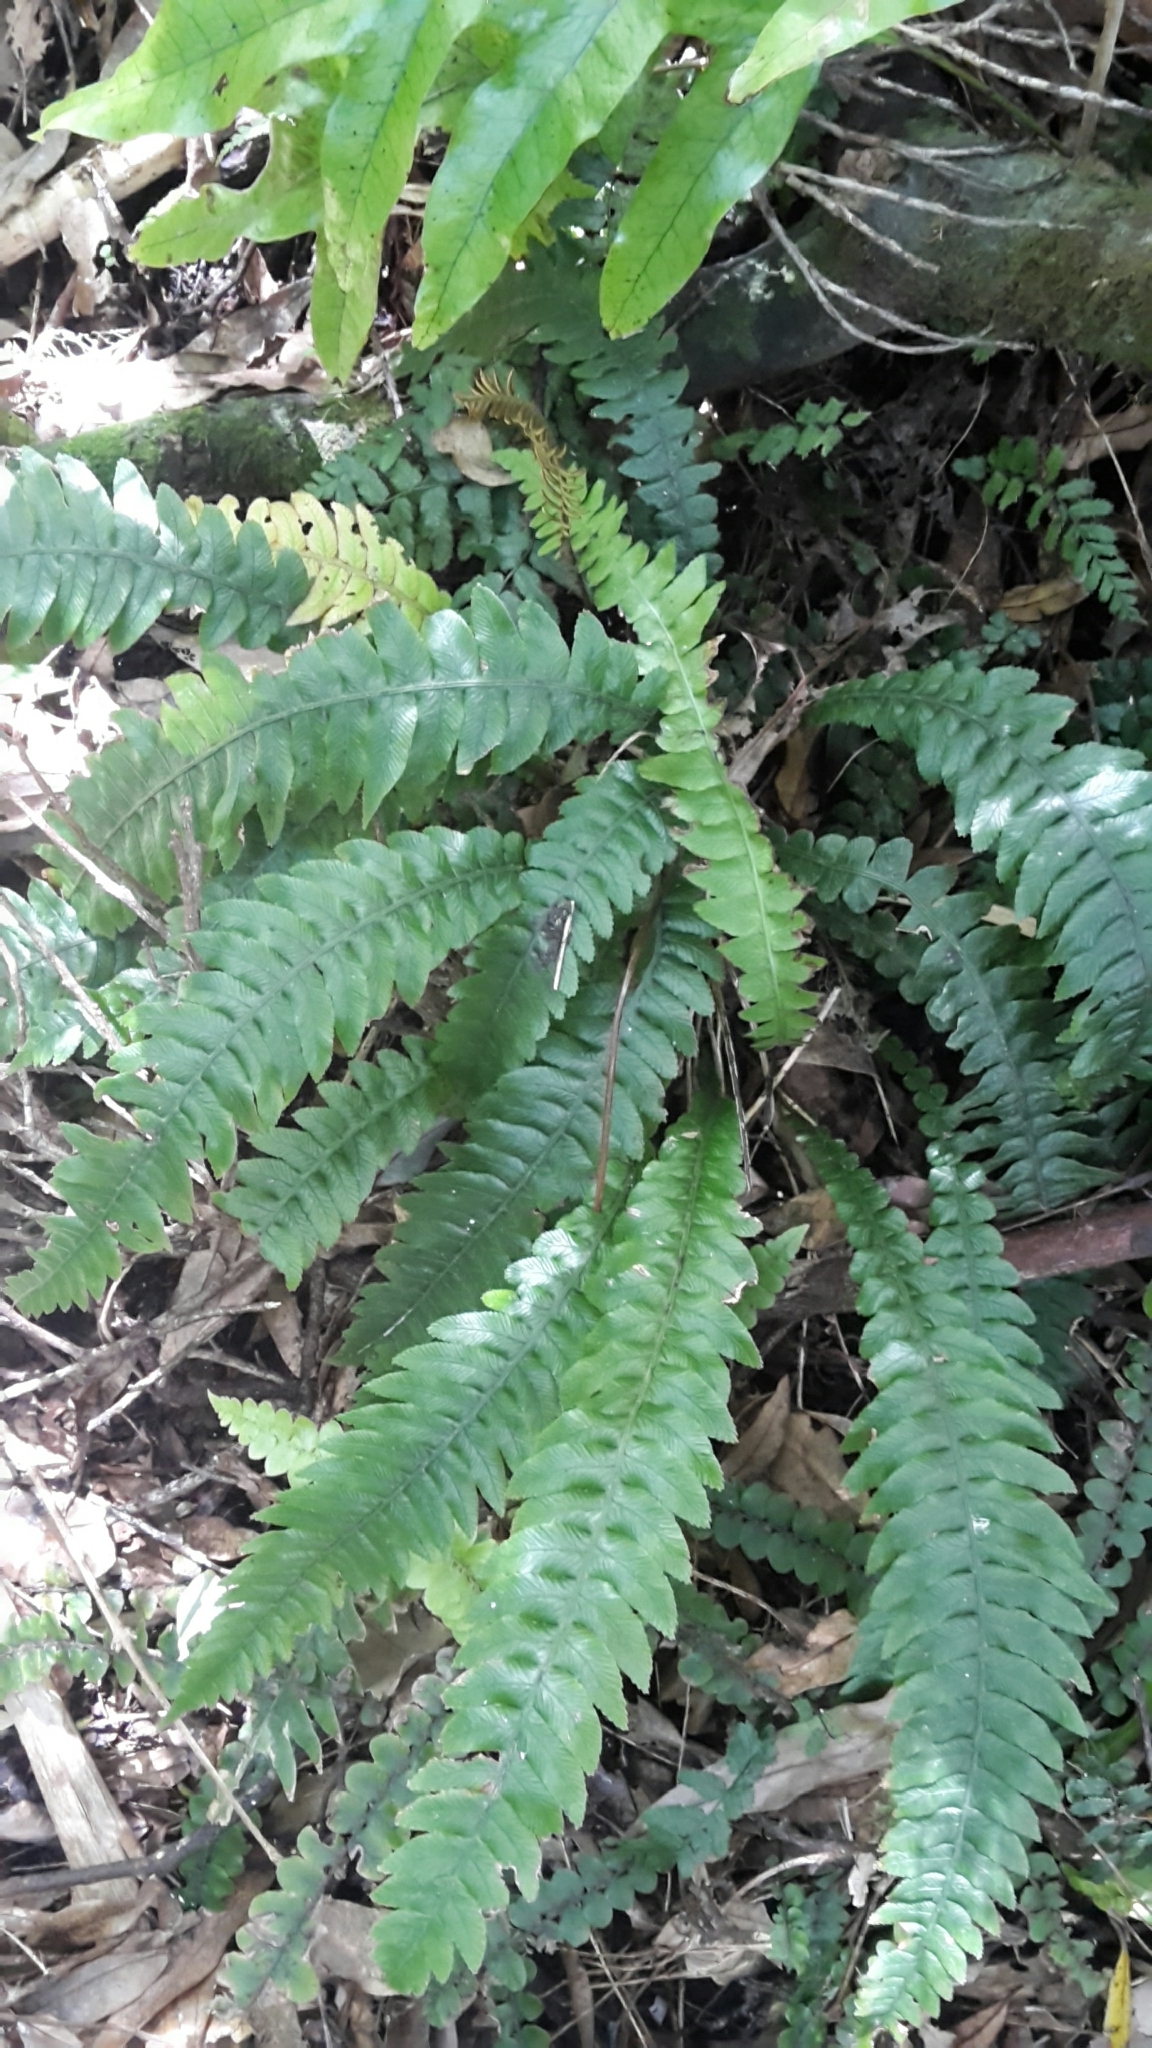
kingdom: Plantae
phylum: Tracheophyta
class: Polypodiopsida
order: Polypodiales
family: Blechnaceae
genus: Austroblechnum
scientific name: Austroblechnum lanceolatum
